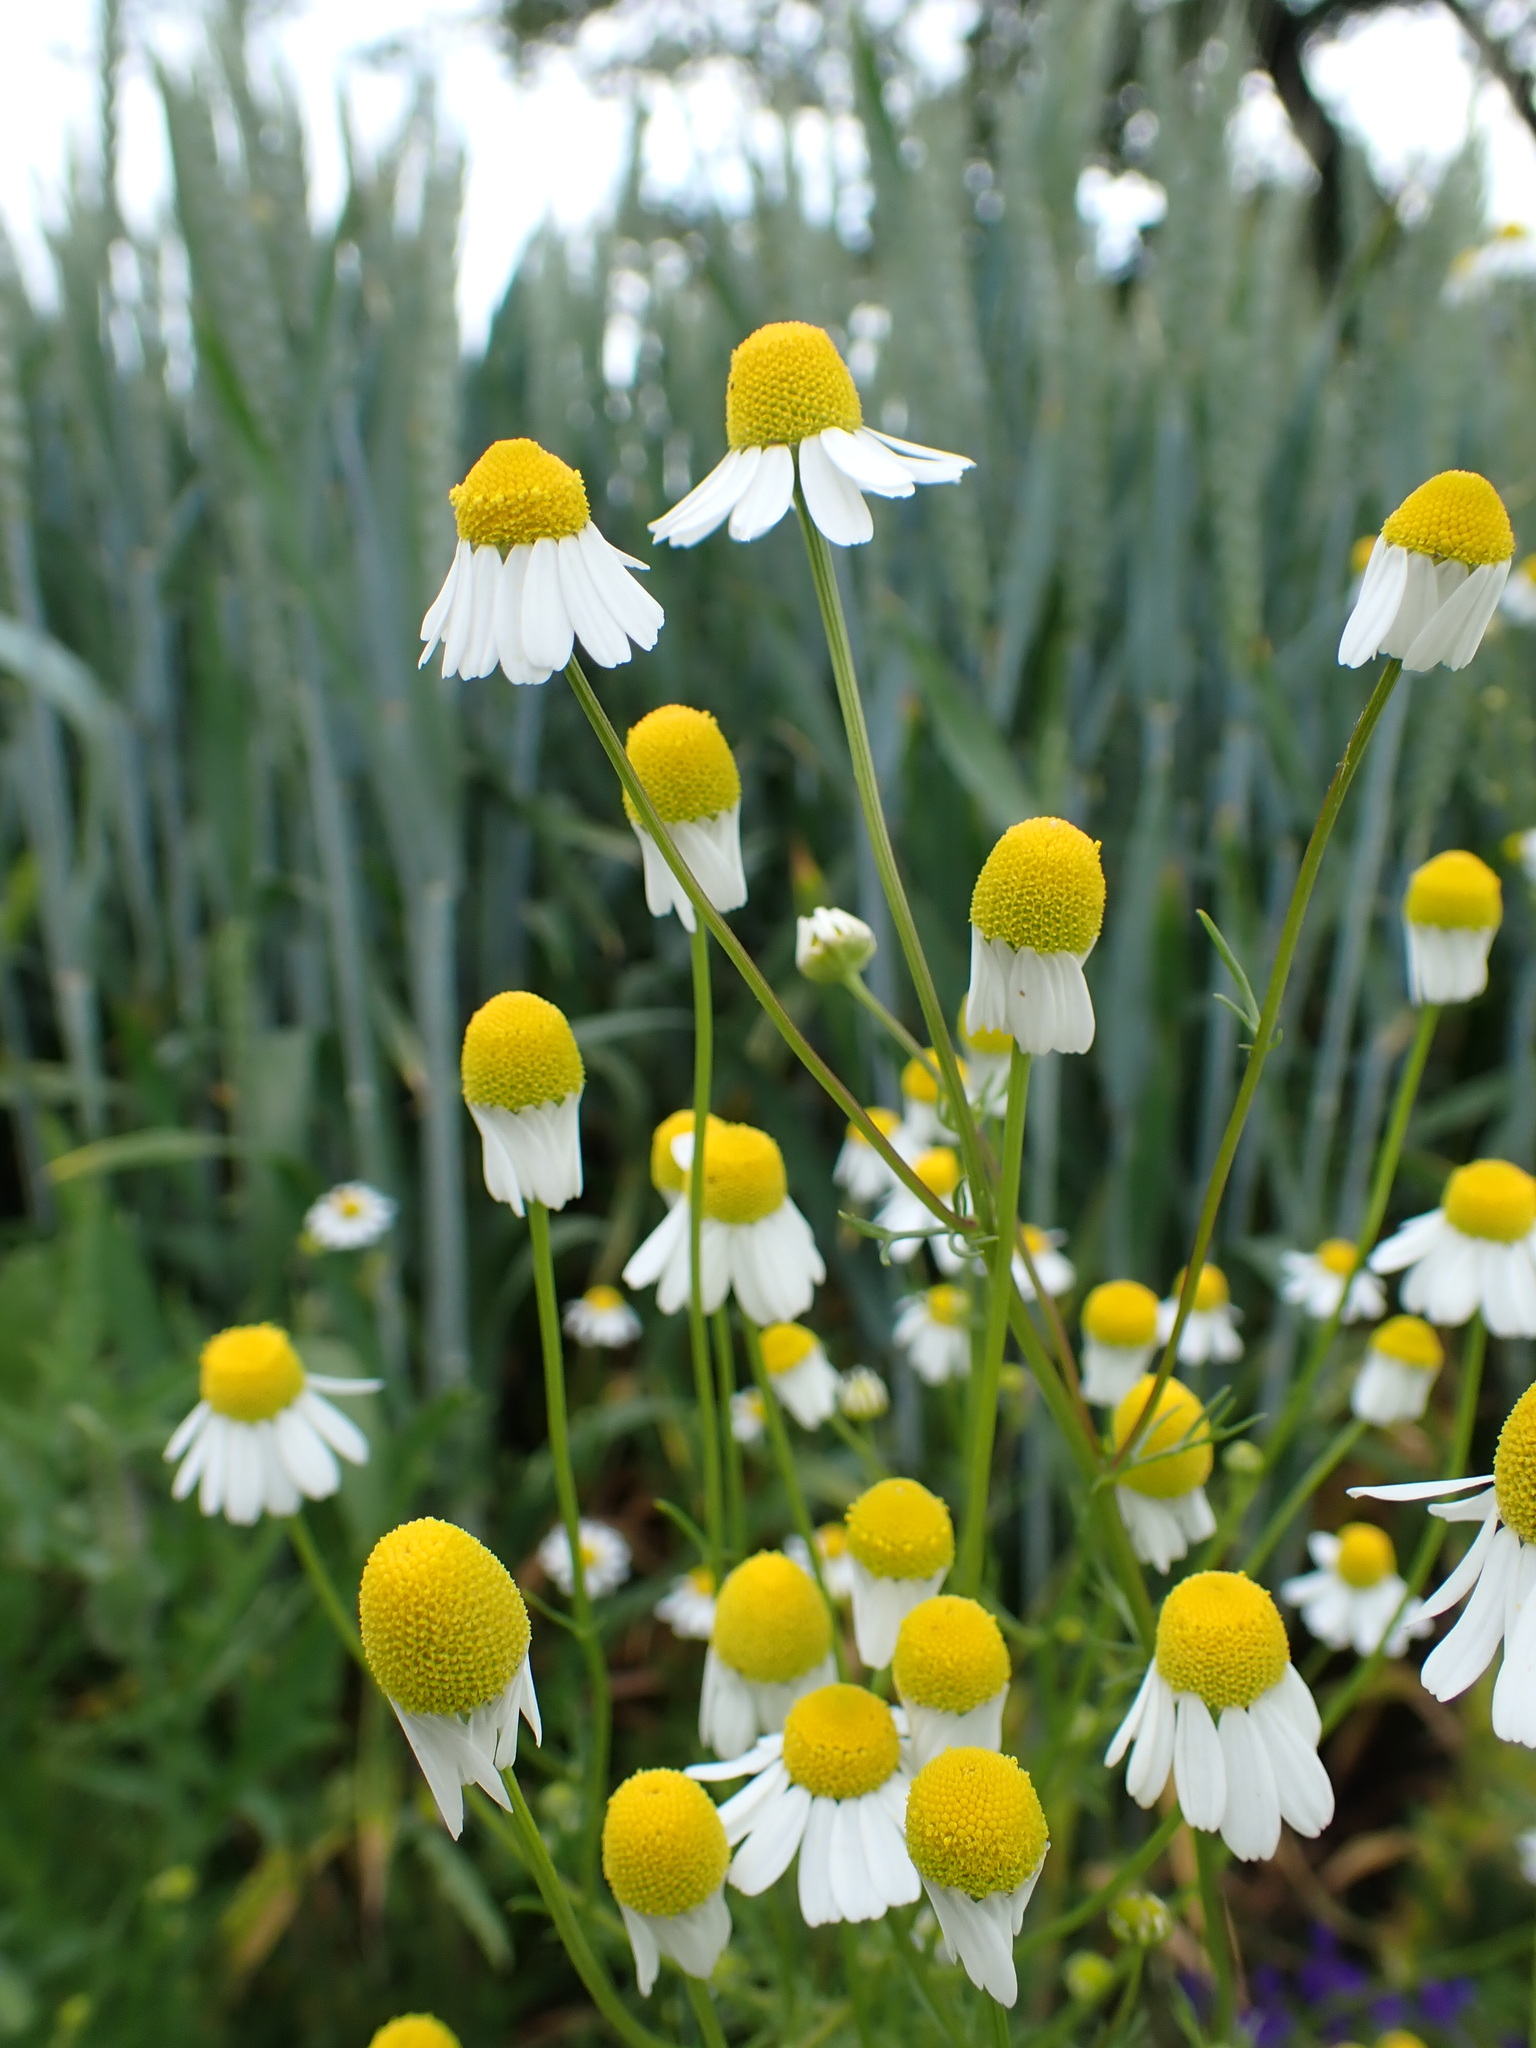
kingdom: Plantae
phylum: Tracheophyta
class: Magnoliopsida
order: Asterales
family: Asteraceae
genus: Matricaria
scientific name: Matricaria chamomilla
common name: Scented mayweed
